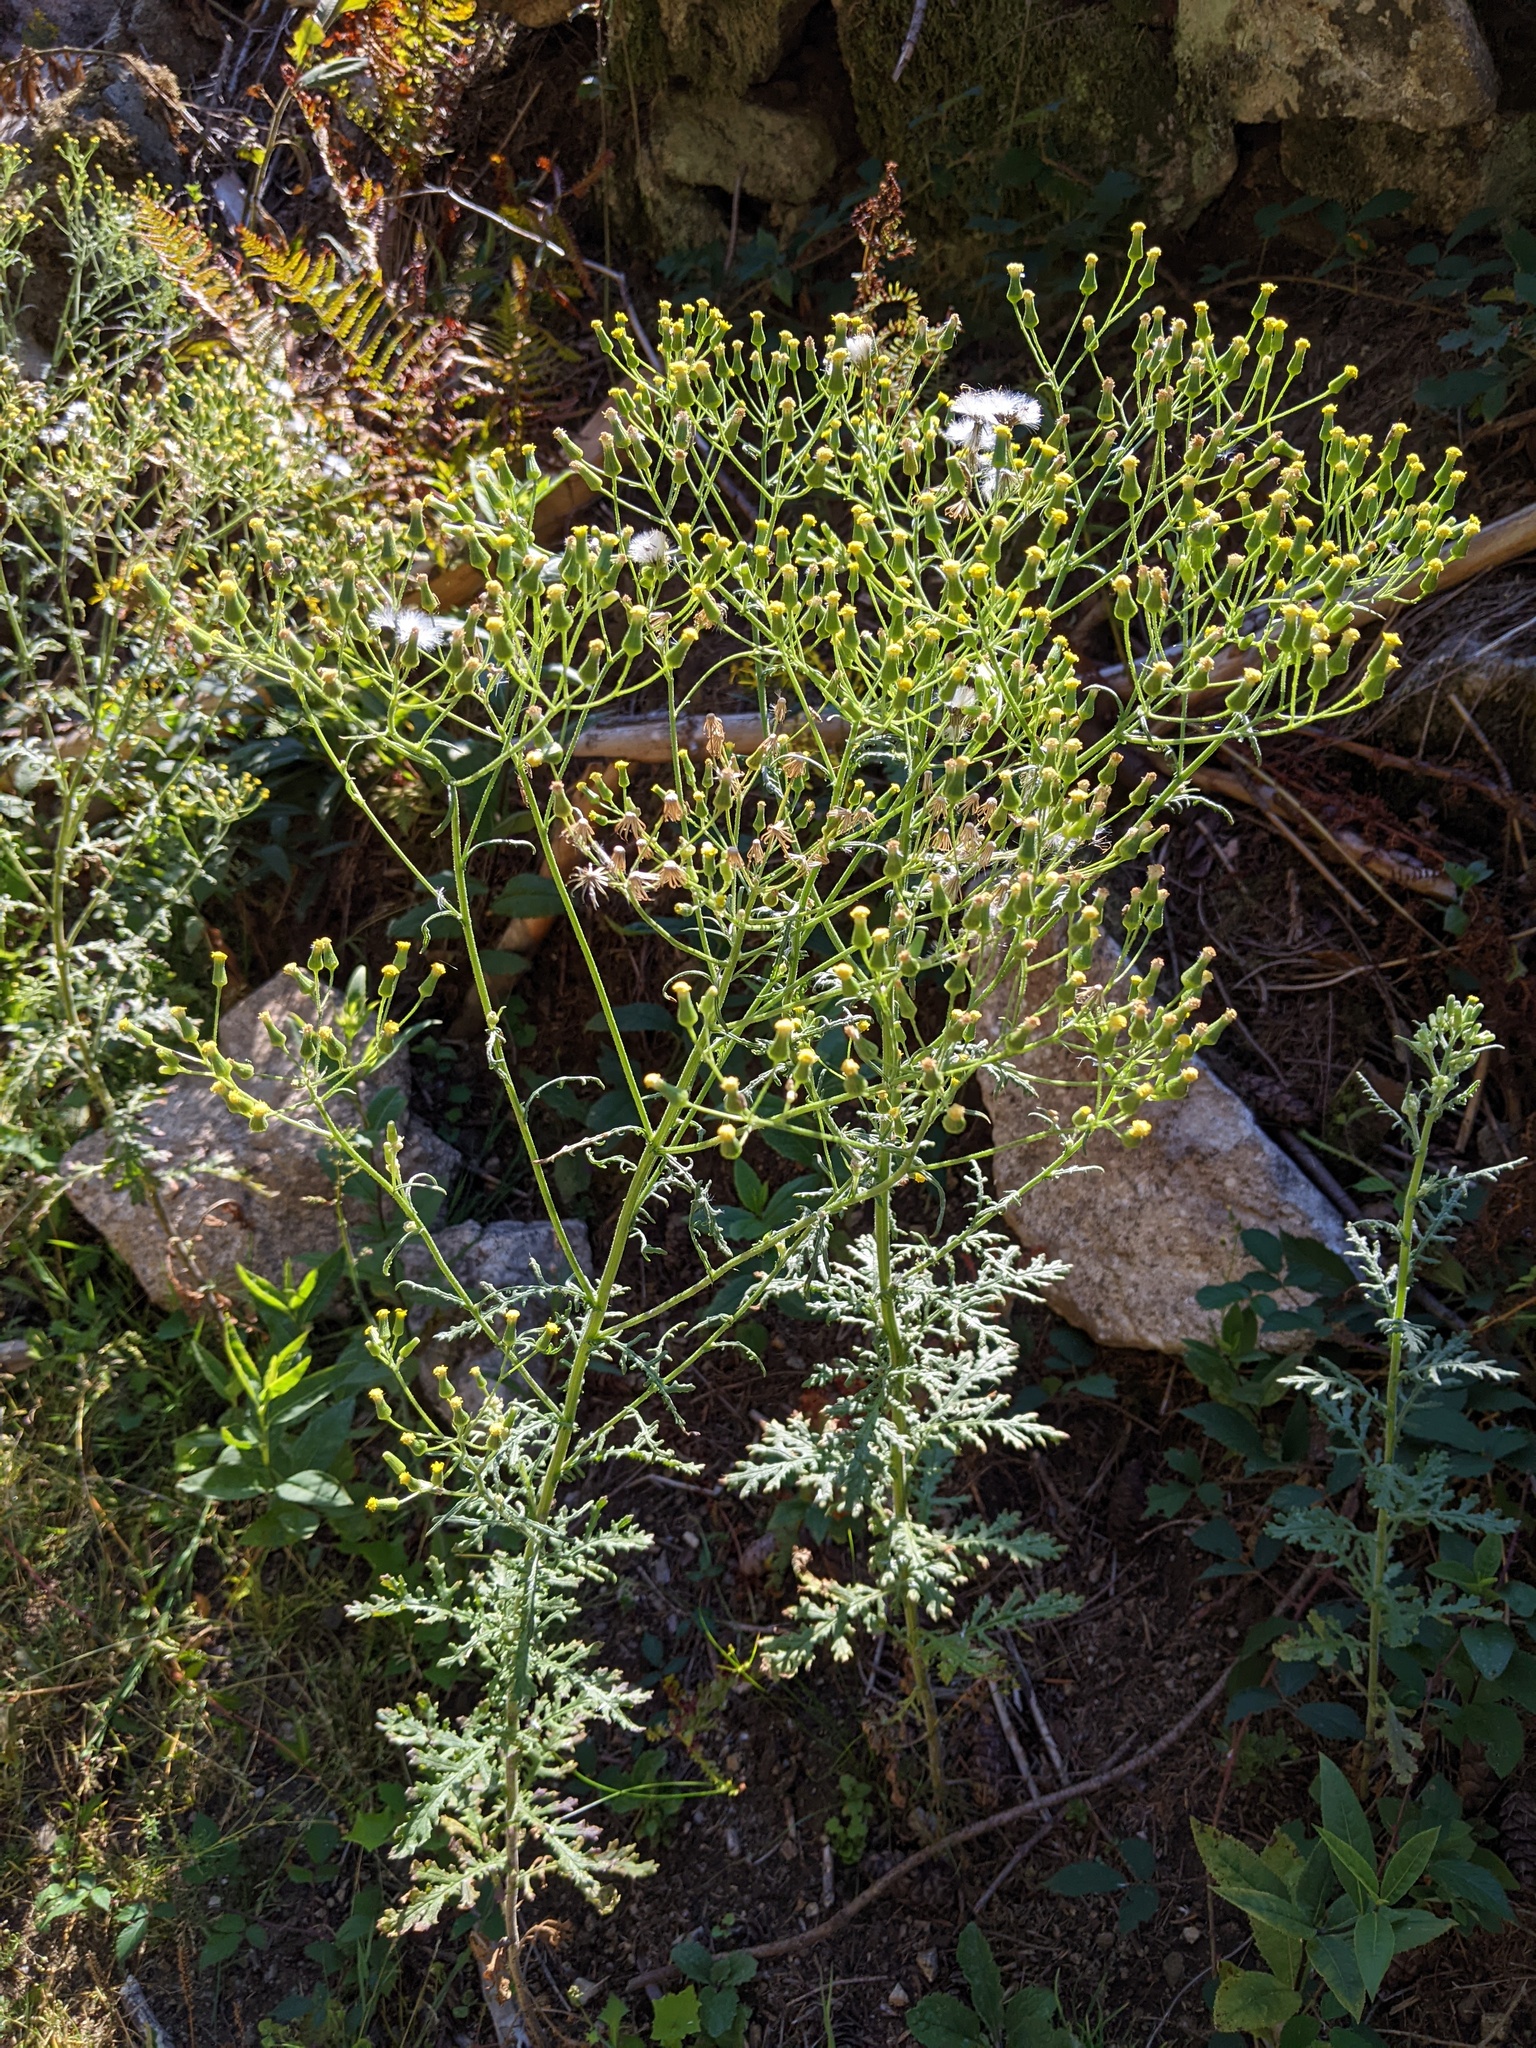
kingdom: Plantae
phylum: Tracheophyta
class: Magnoliopsida
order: Asterales
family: Asteraceae
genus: Senecio
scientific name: Senecio sylvaticus
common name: Woodland ragwort
